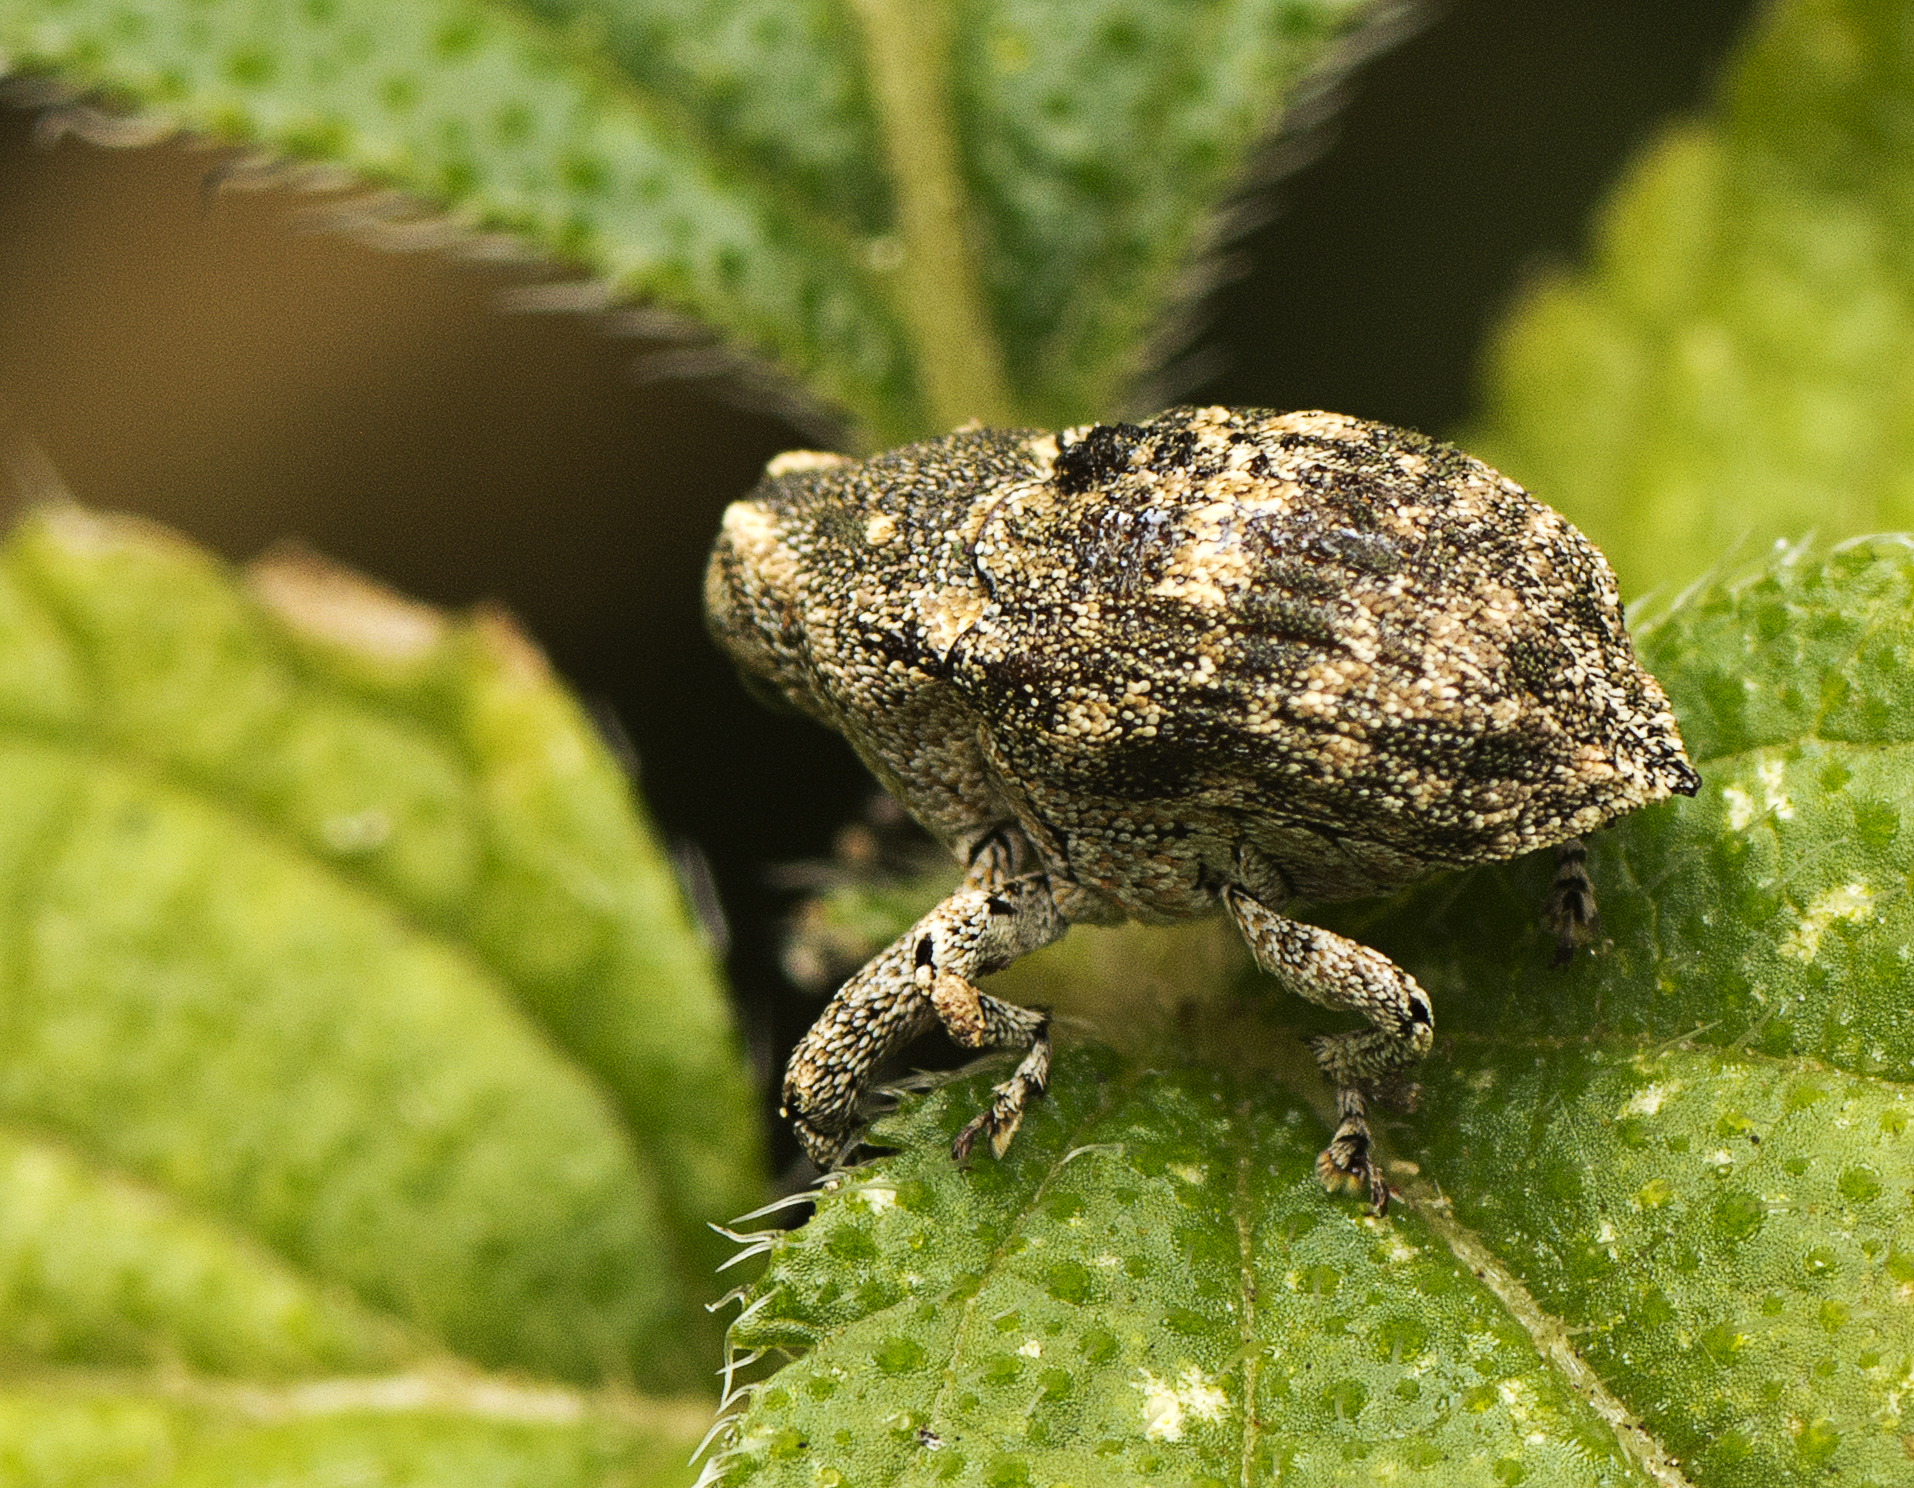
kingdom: Animalia
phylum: Arthropoda
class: Insecta
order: Coleoptera
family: Curculionidae
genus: Eutyrhinus
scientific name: Eutyrhinus meditabundus
